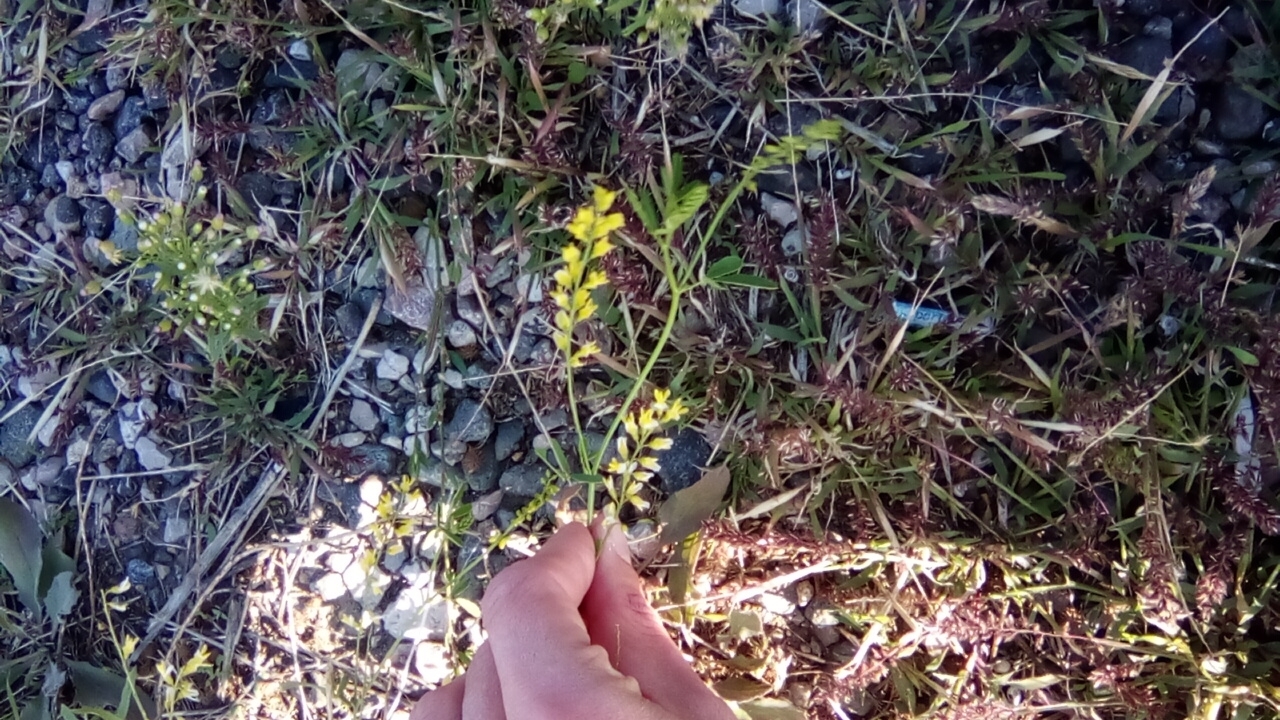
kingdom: Plantae
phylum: Tracheophyta
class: Magnoliopsida
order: Fabales
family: Fabaceae
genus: Melilotus
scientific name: Melilotus officinalis
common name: Sweetclover
